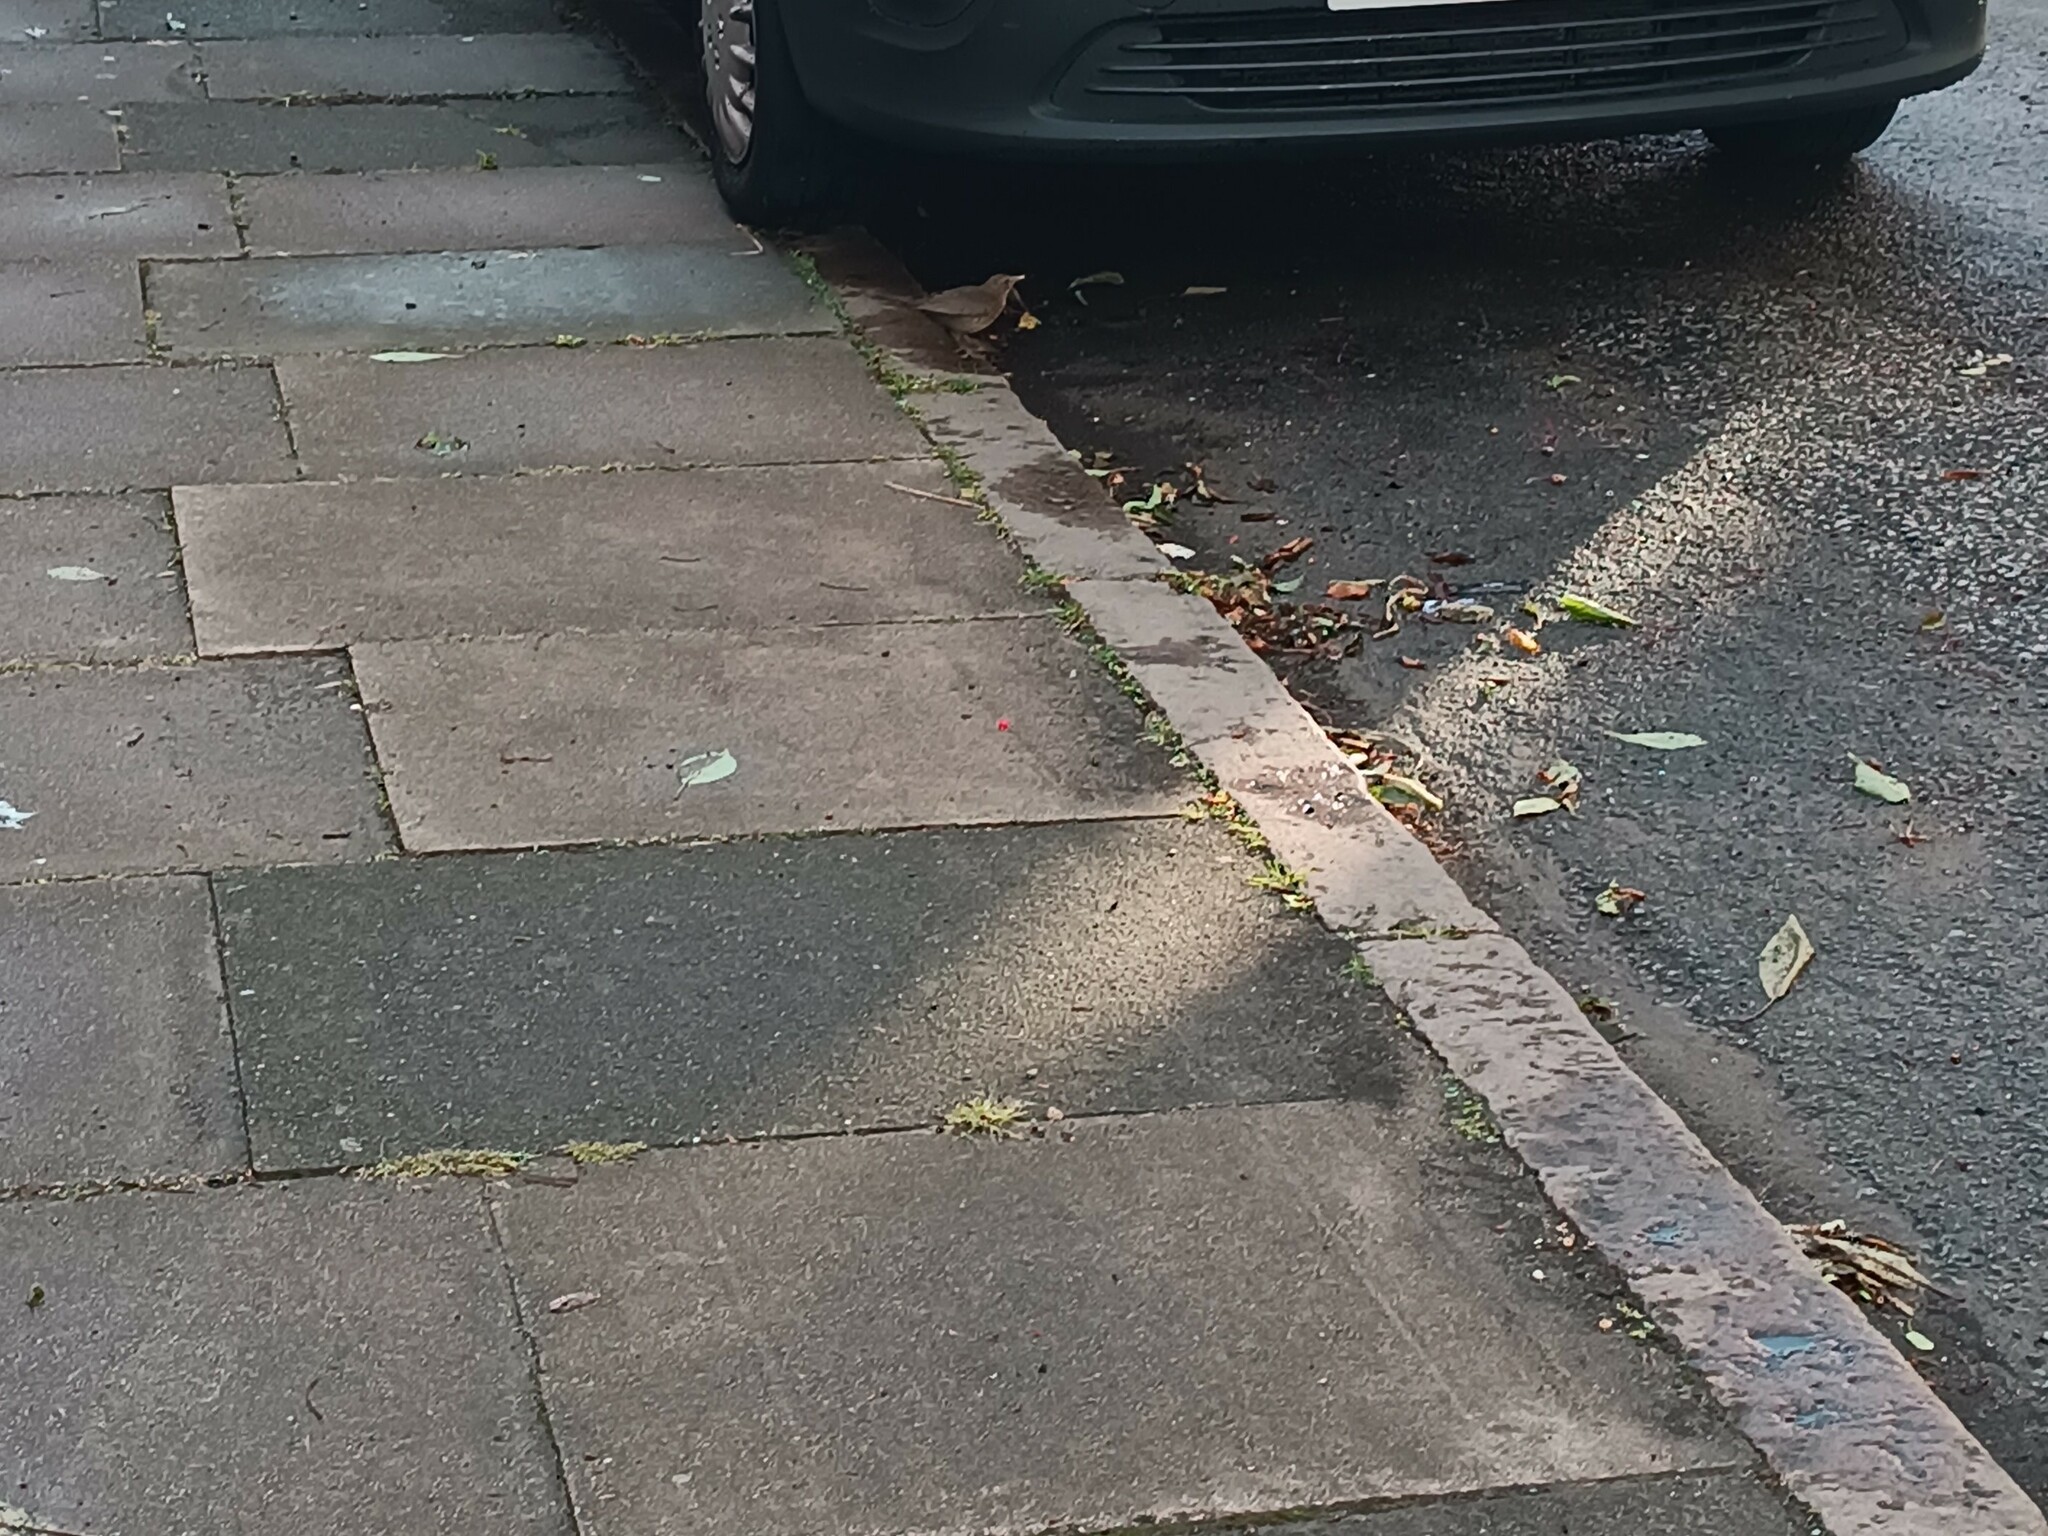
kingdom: Animalia
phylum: Chordata
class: Aves
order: Passeriformes
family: Turdidae
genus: Turdus
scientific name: Turdus merula
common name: Common blackbird
